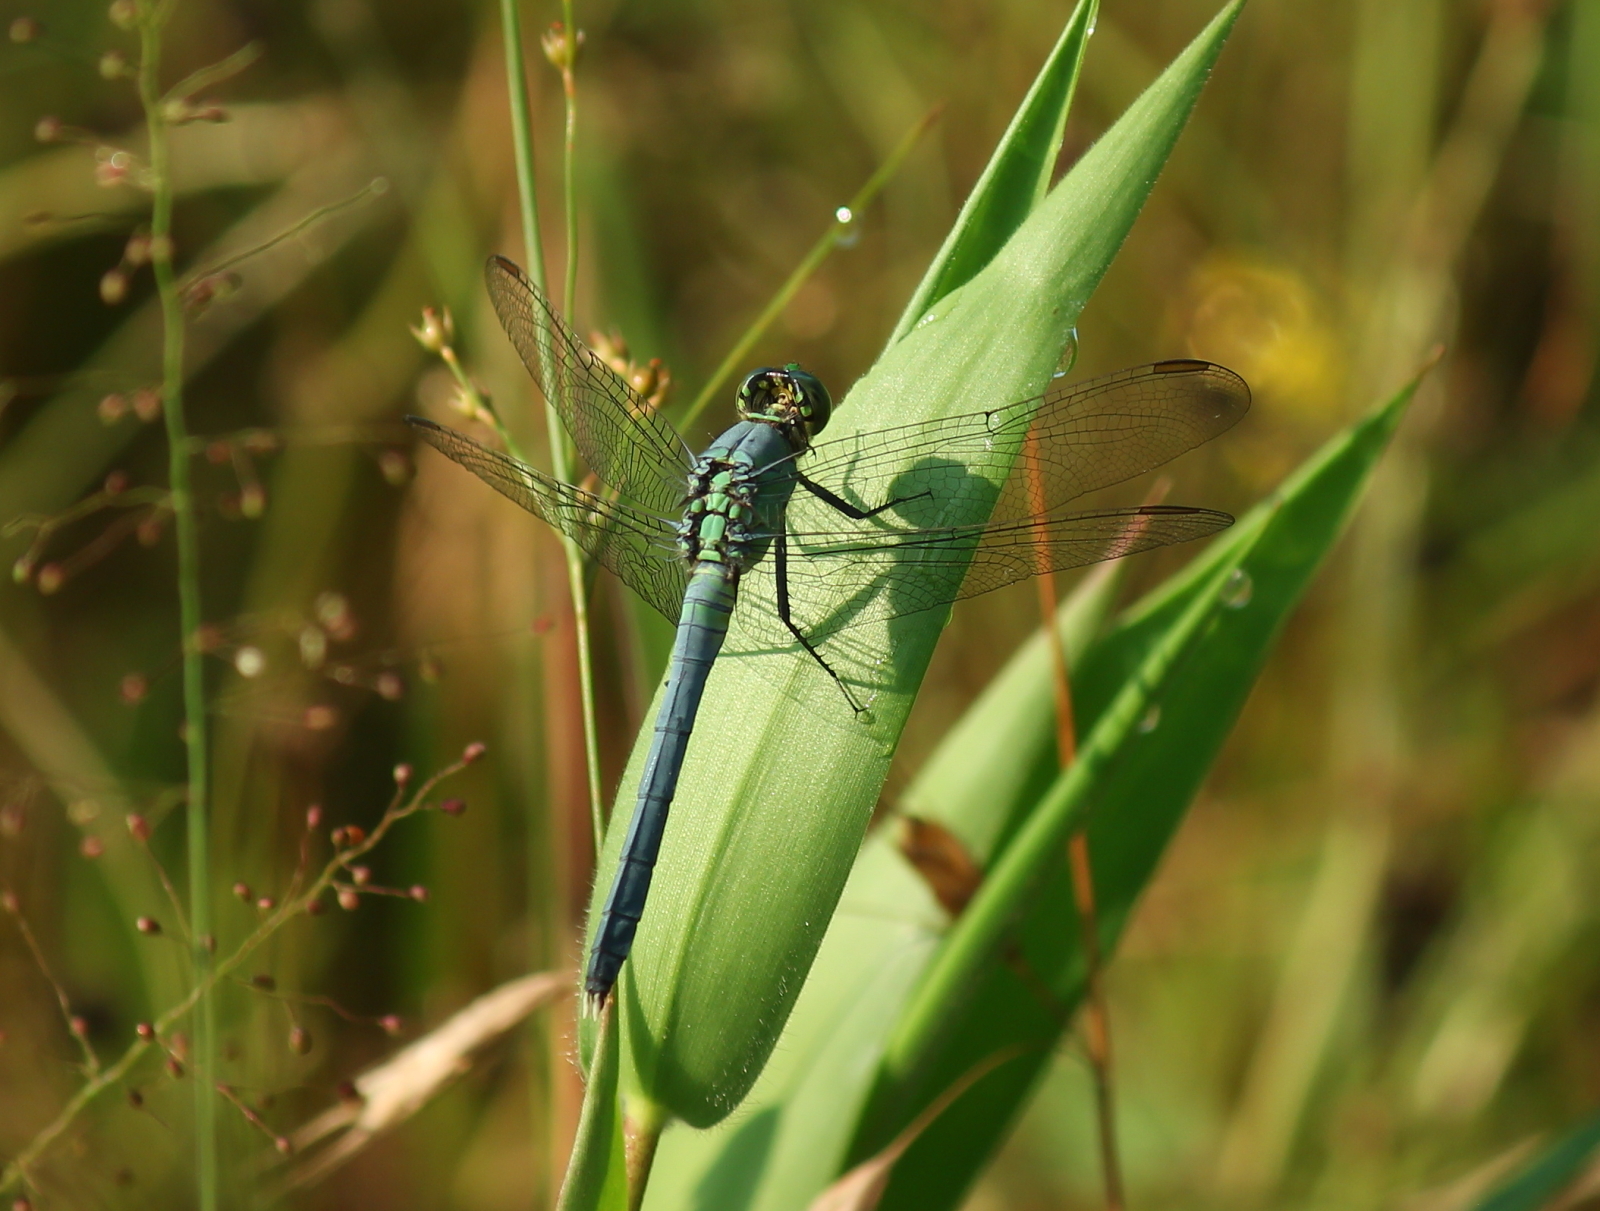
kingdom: Animalia
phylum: Arthropoda
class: Insecta
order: Odonata
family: Libellulidae
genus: Erythemis
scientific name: Erythemis simplicicollis
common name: Eastern pondhawk
